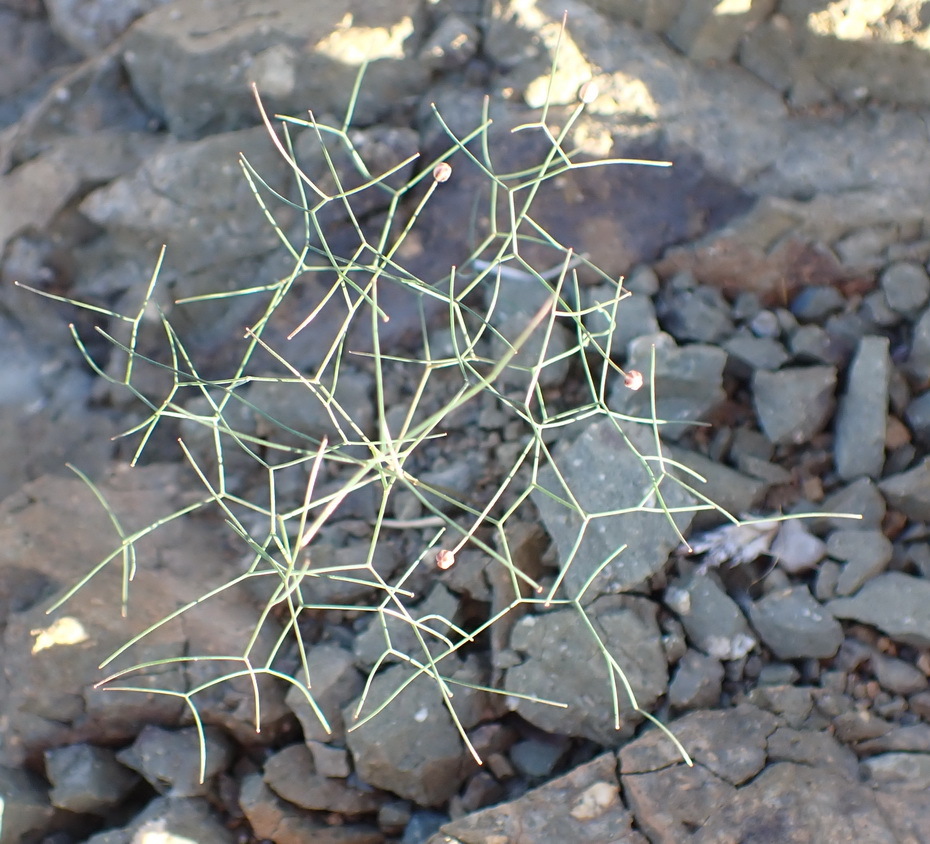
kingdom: Plantae
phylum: Tracheophyta
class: Liliopsida
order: Asparagales
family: Asparagaceae
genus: Drimia
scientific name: Drimia intricata
